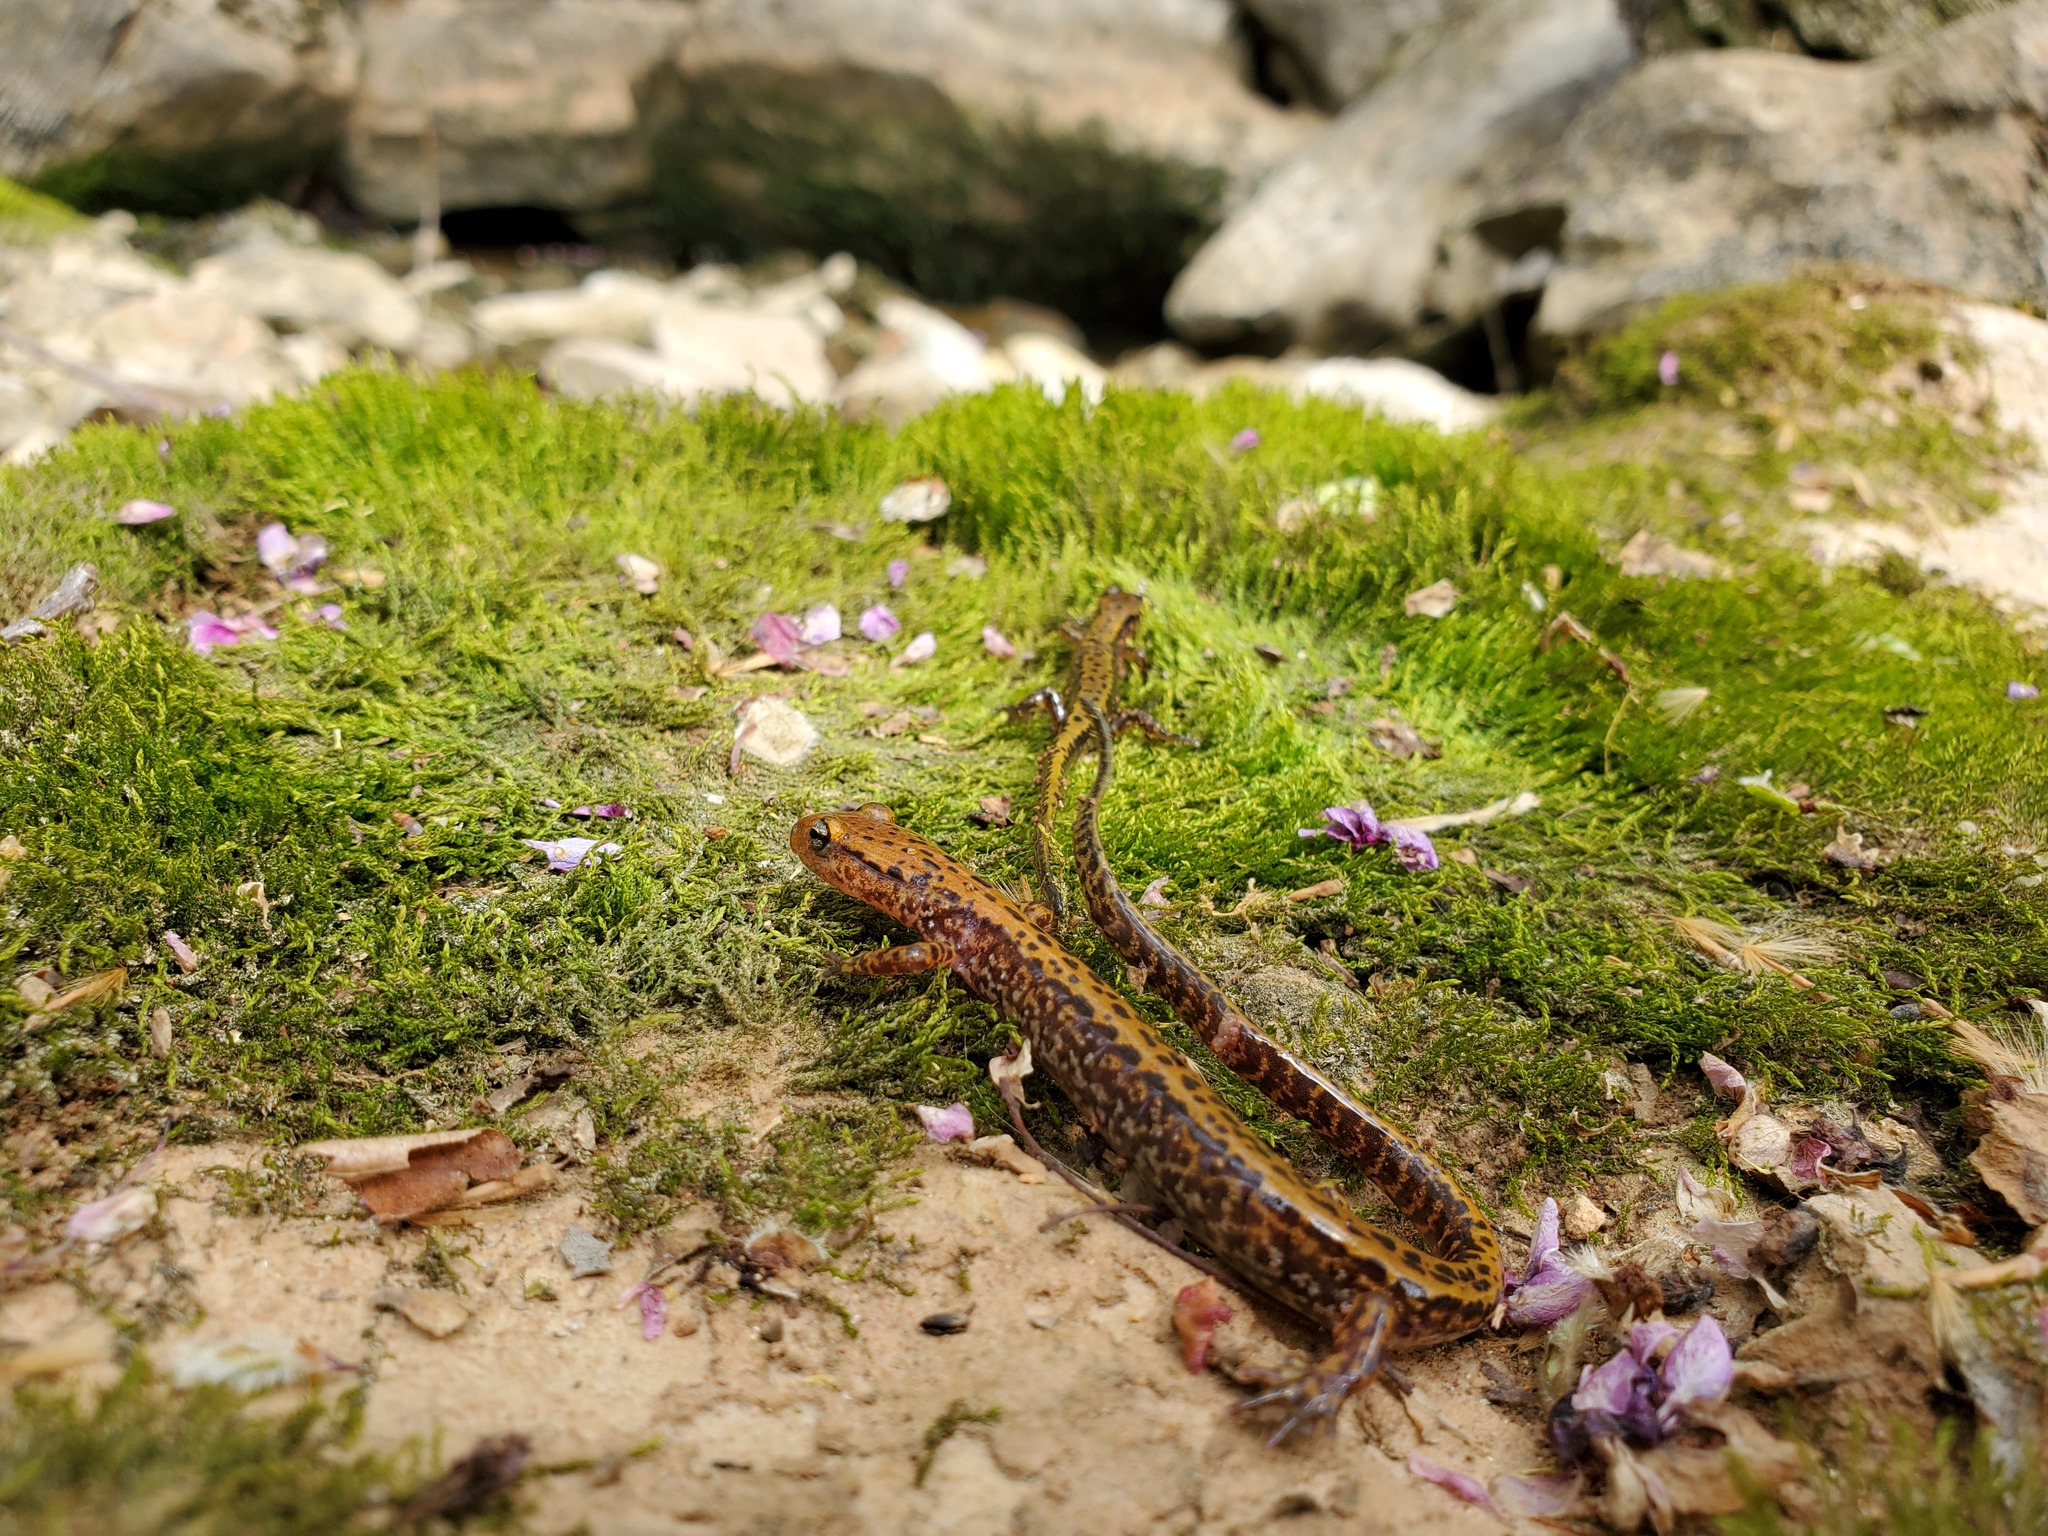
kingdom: Animalia
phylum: Chordata
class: Amphibia
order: Caudata
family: Plethodontidae
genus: Eurycea
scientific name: Eurycea longicauda
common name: Long-tailed salamander
